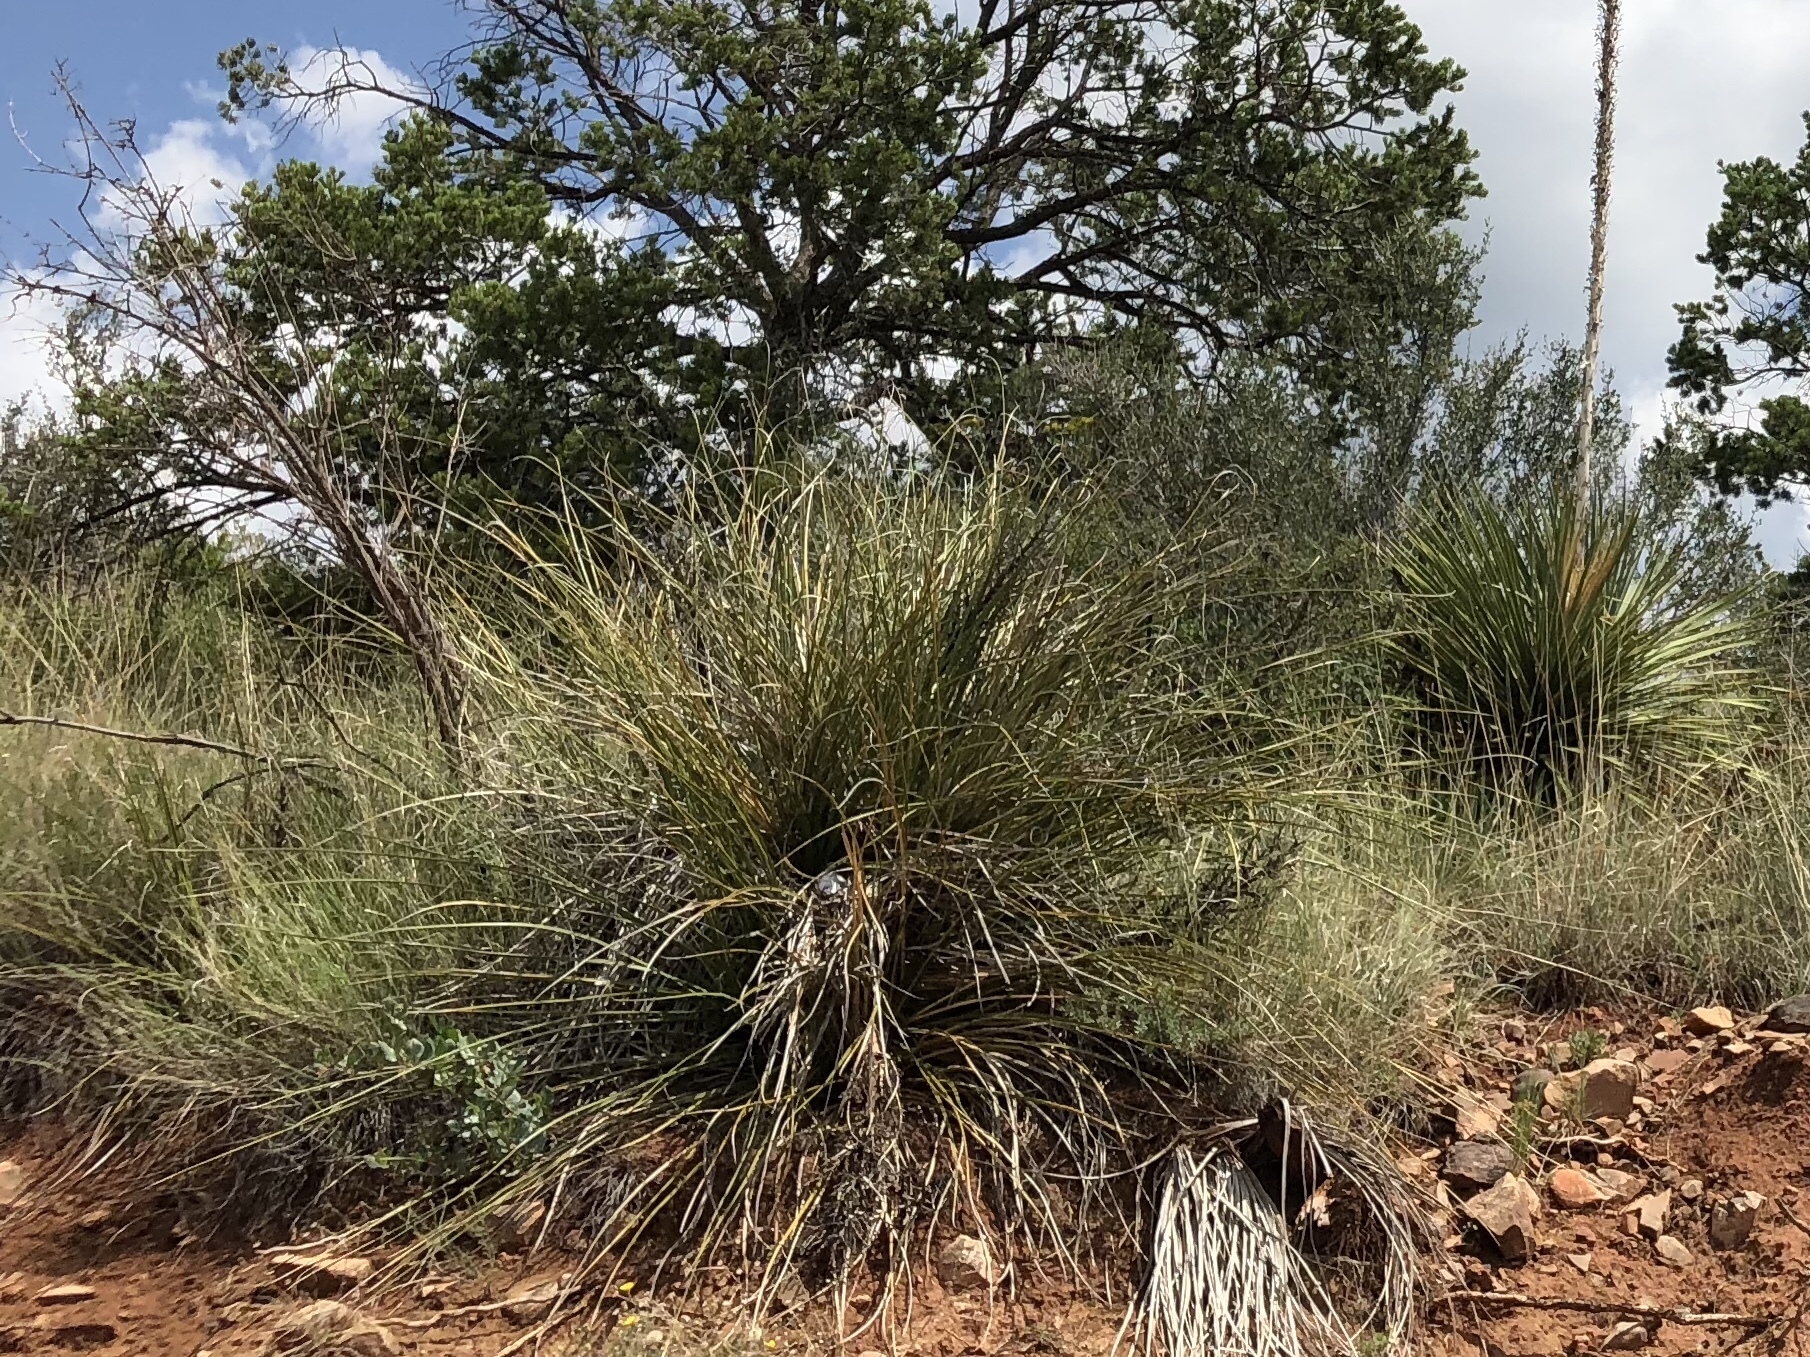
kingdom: Plantae
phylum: Tracheophyta
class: Liliopsida
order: Asparagales
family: Asparagaceae
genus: Nolina
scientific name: Nolina microcarpa
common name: Bear-grass
